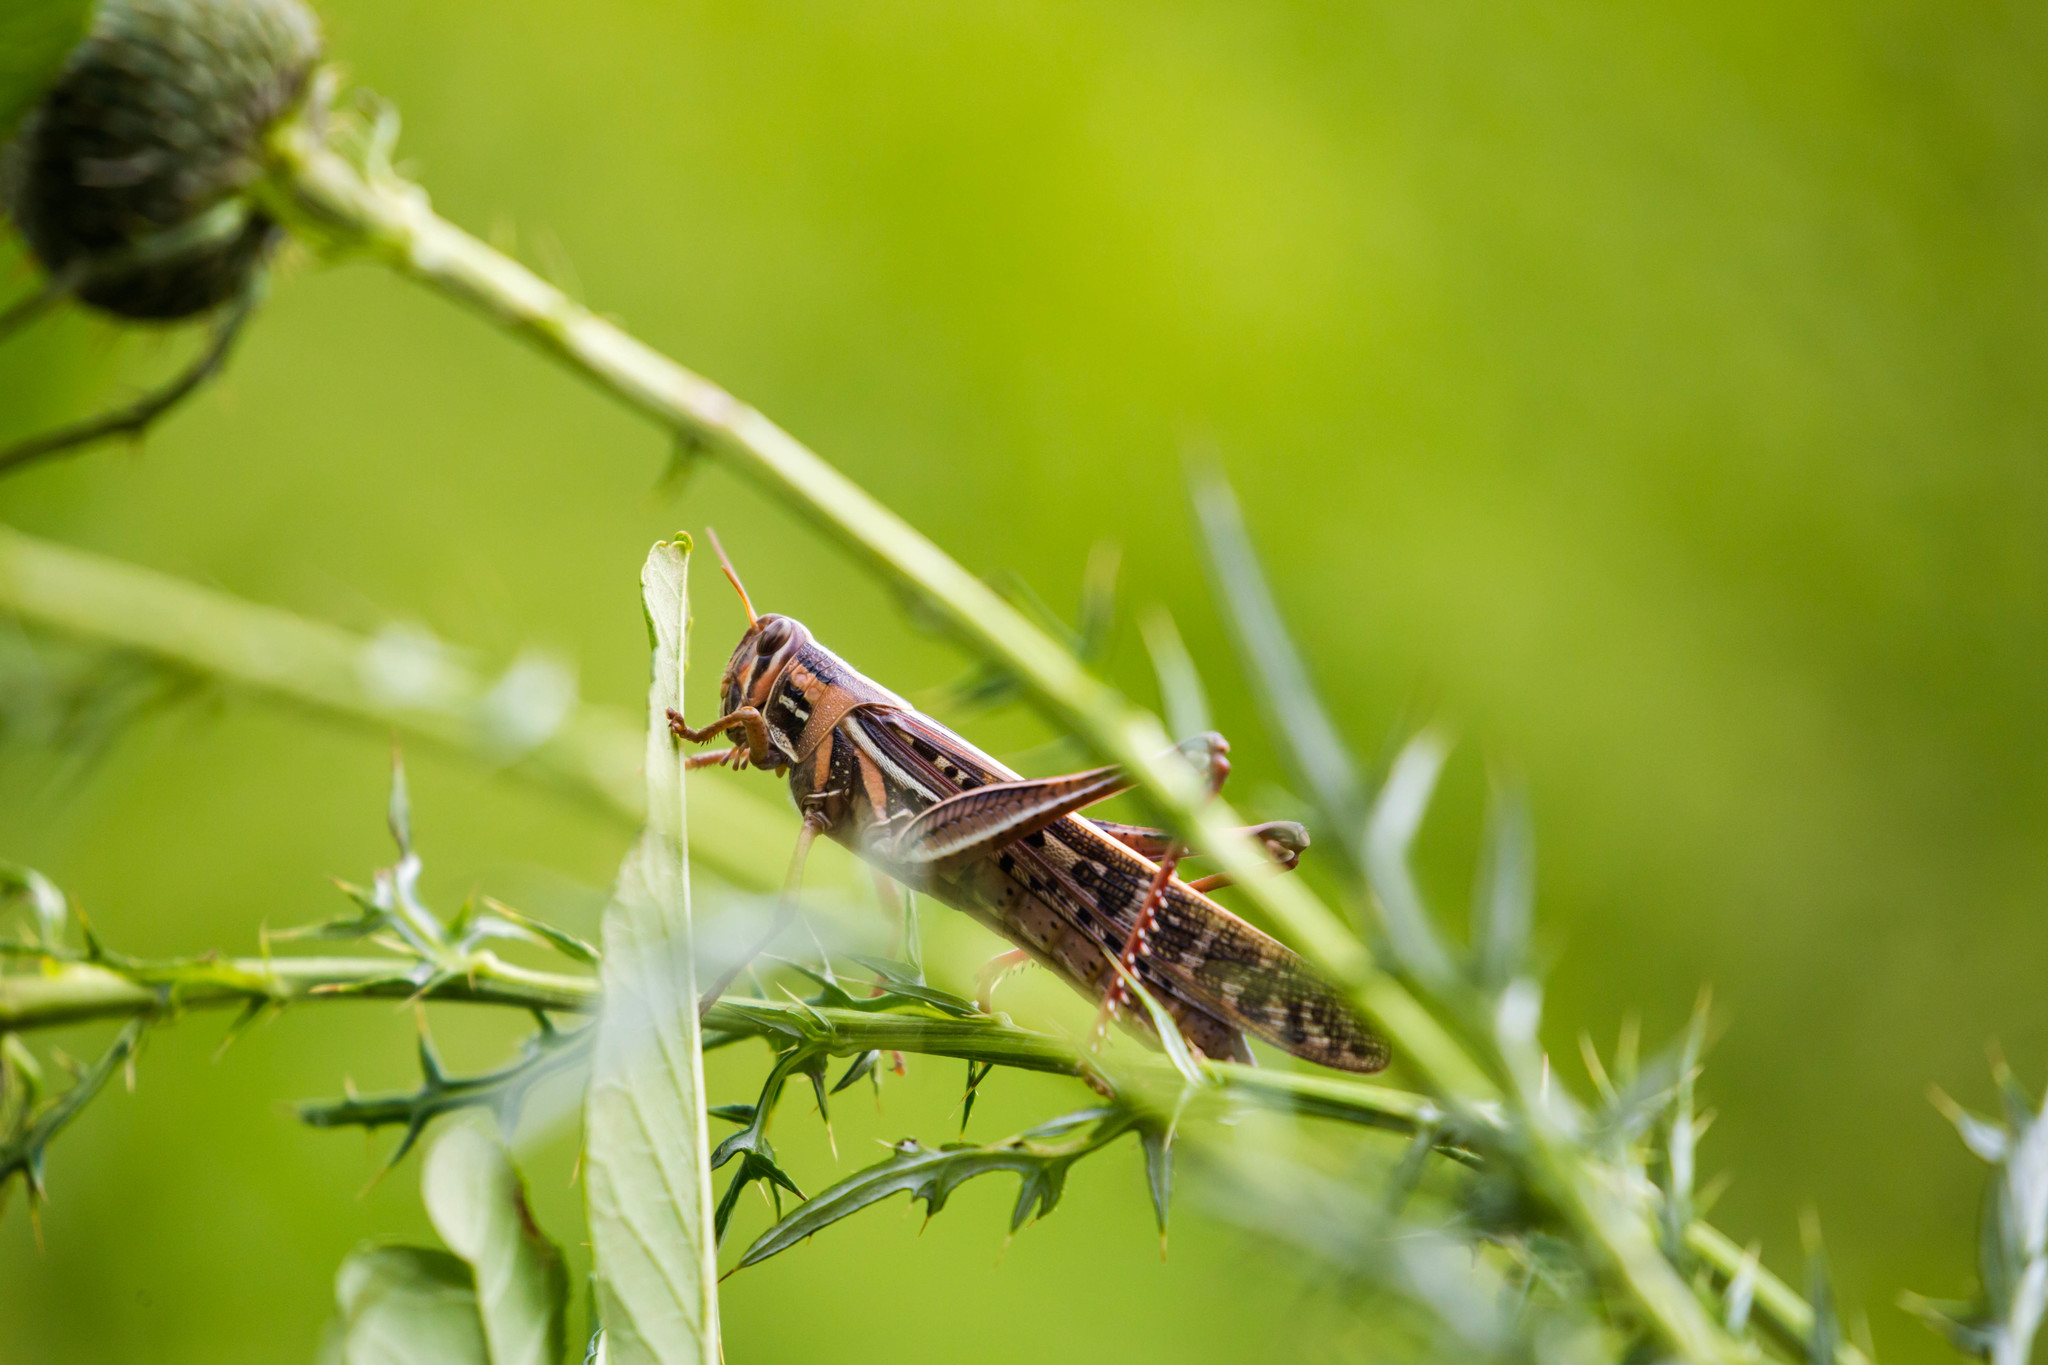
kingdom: Animalia
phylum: Arthropoda
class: Insecta
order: Orthoptera
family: Acrididae
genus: Schistocerca
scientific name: Schistocerca americana
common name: American bird locust
